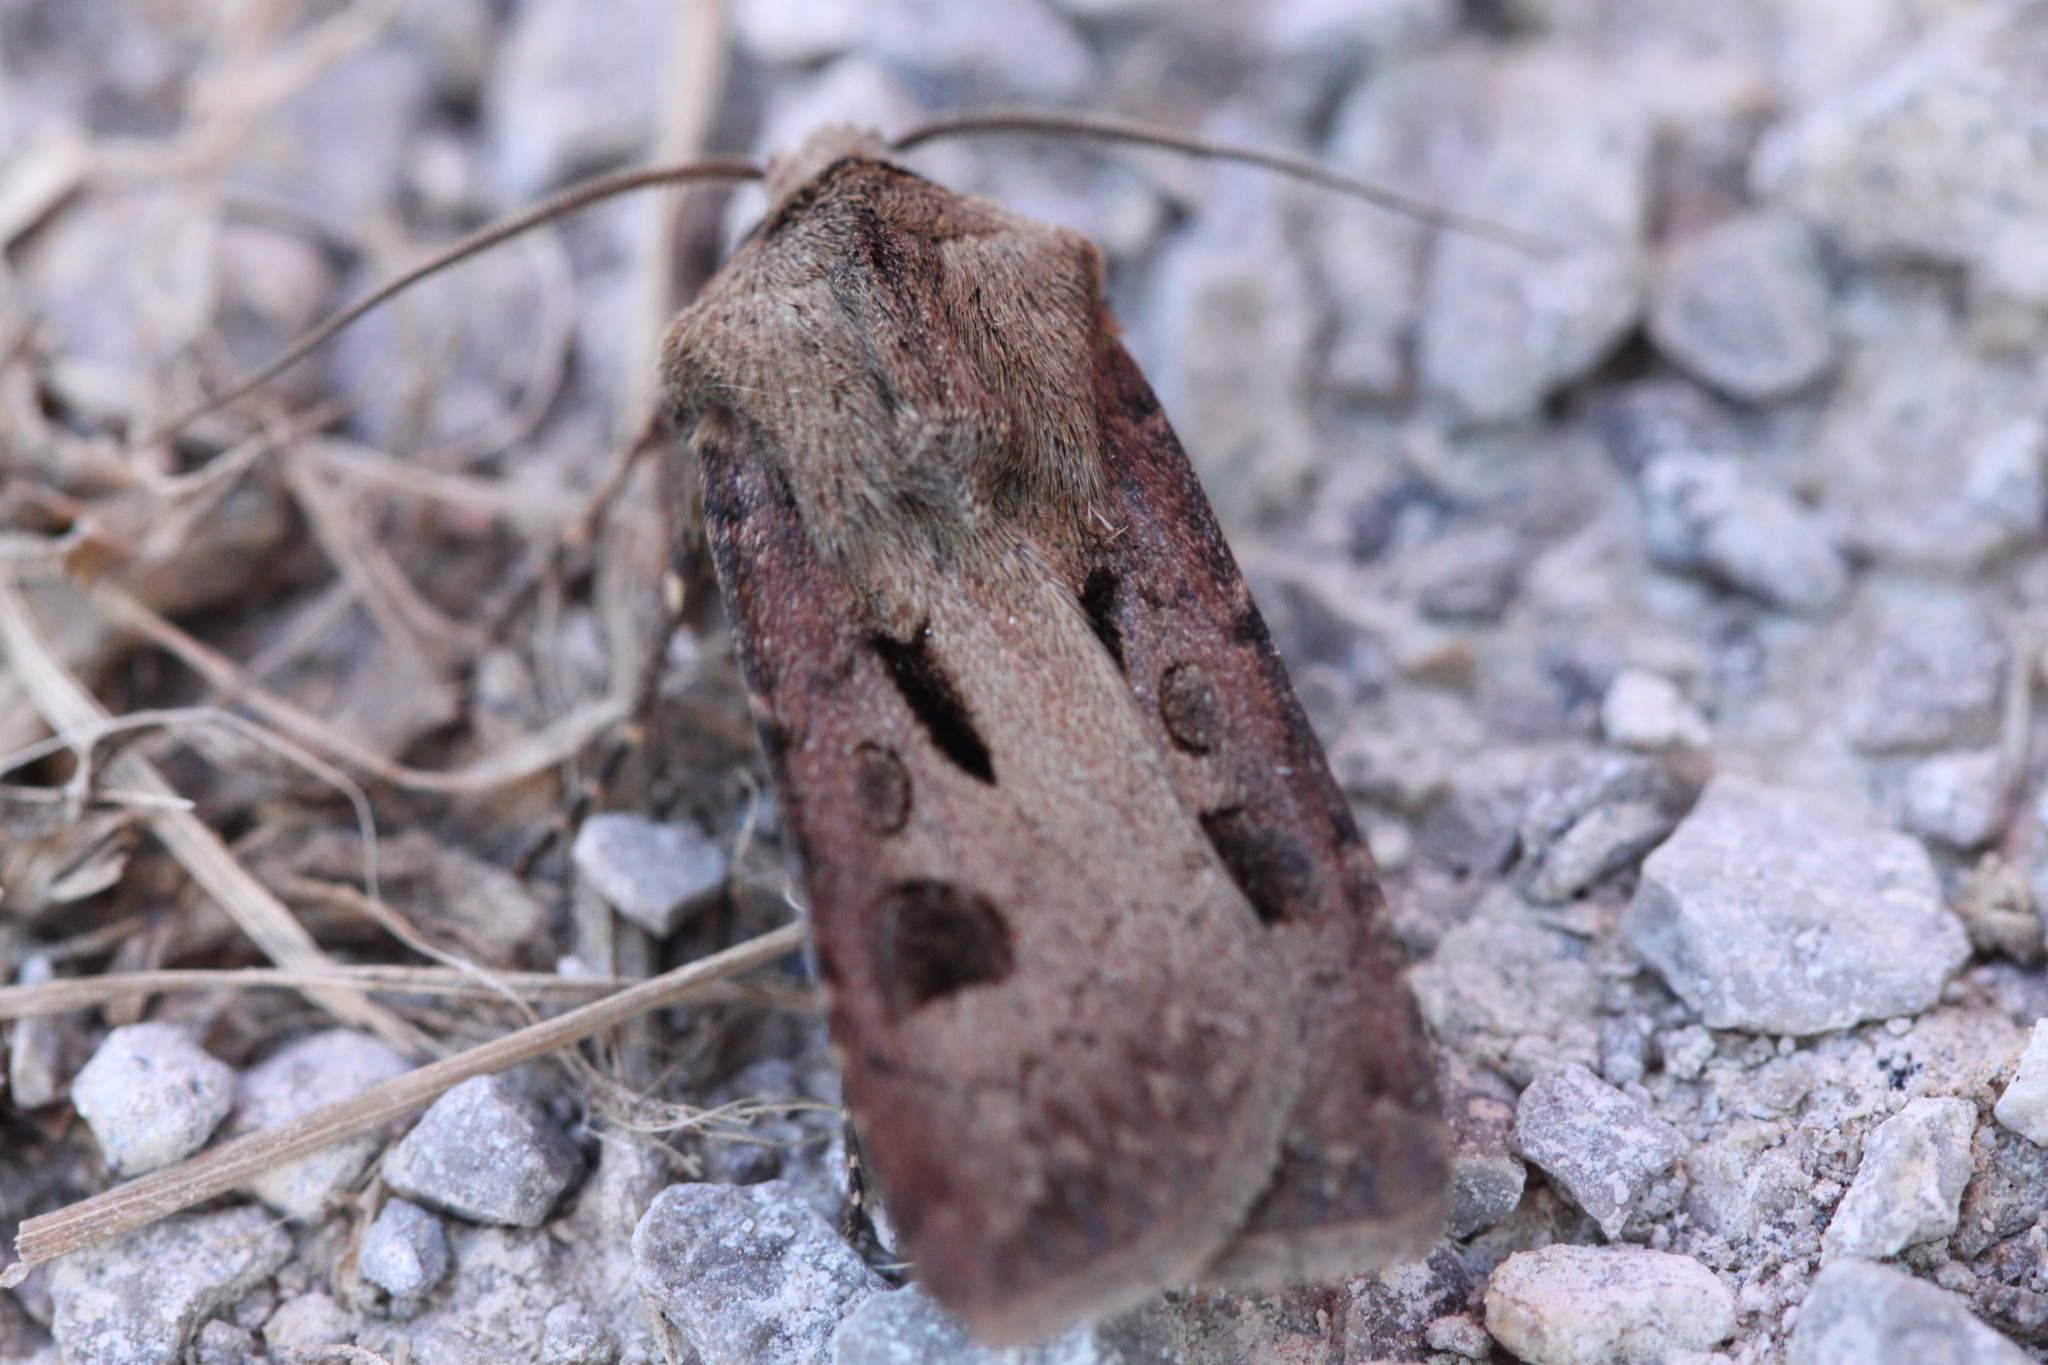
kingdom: Animalia
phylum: Arthropoda
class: Insecta
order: Lepidoptera
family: Noctuidae
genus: Agrotis
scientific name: Agrotis exclamationis
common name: Heart and dart
